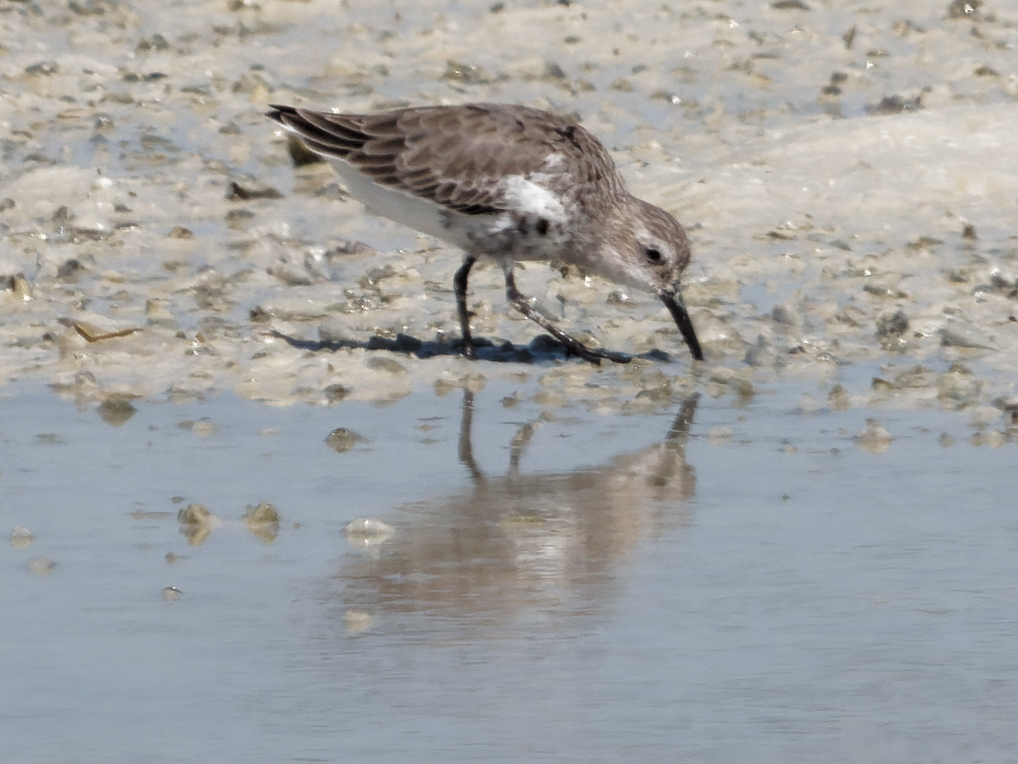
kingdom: Animalia
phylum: Chordata
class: Aves
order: Charadriiformes
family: Scolopacidae
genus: Calidris
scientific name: Calidris alpina
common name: Dunlin
